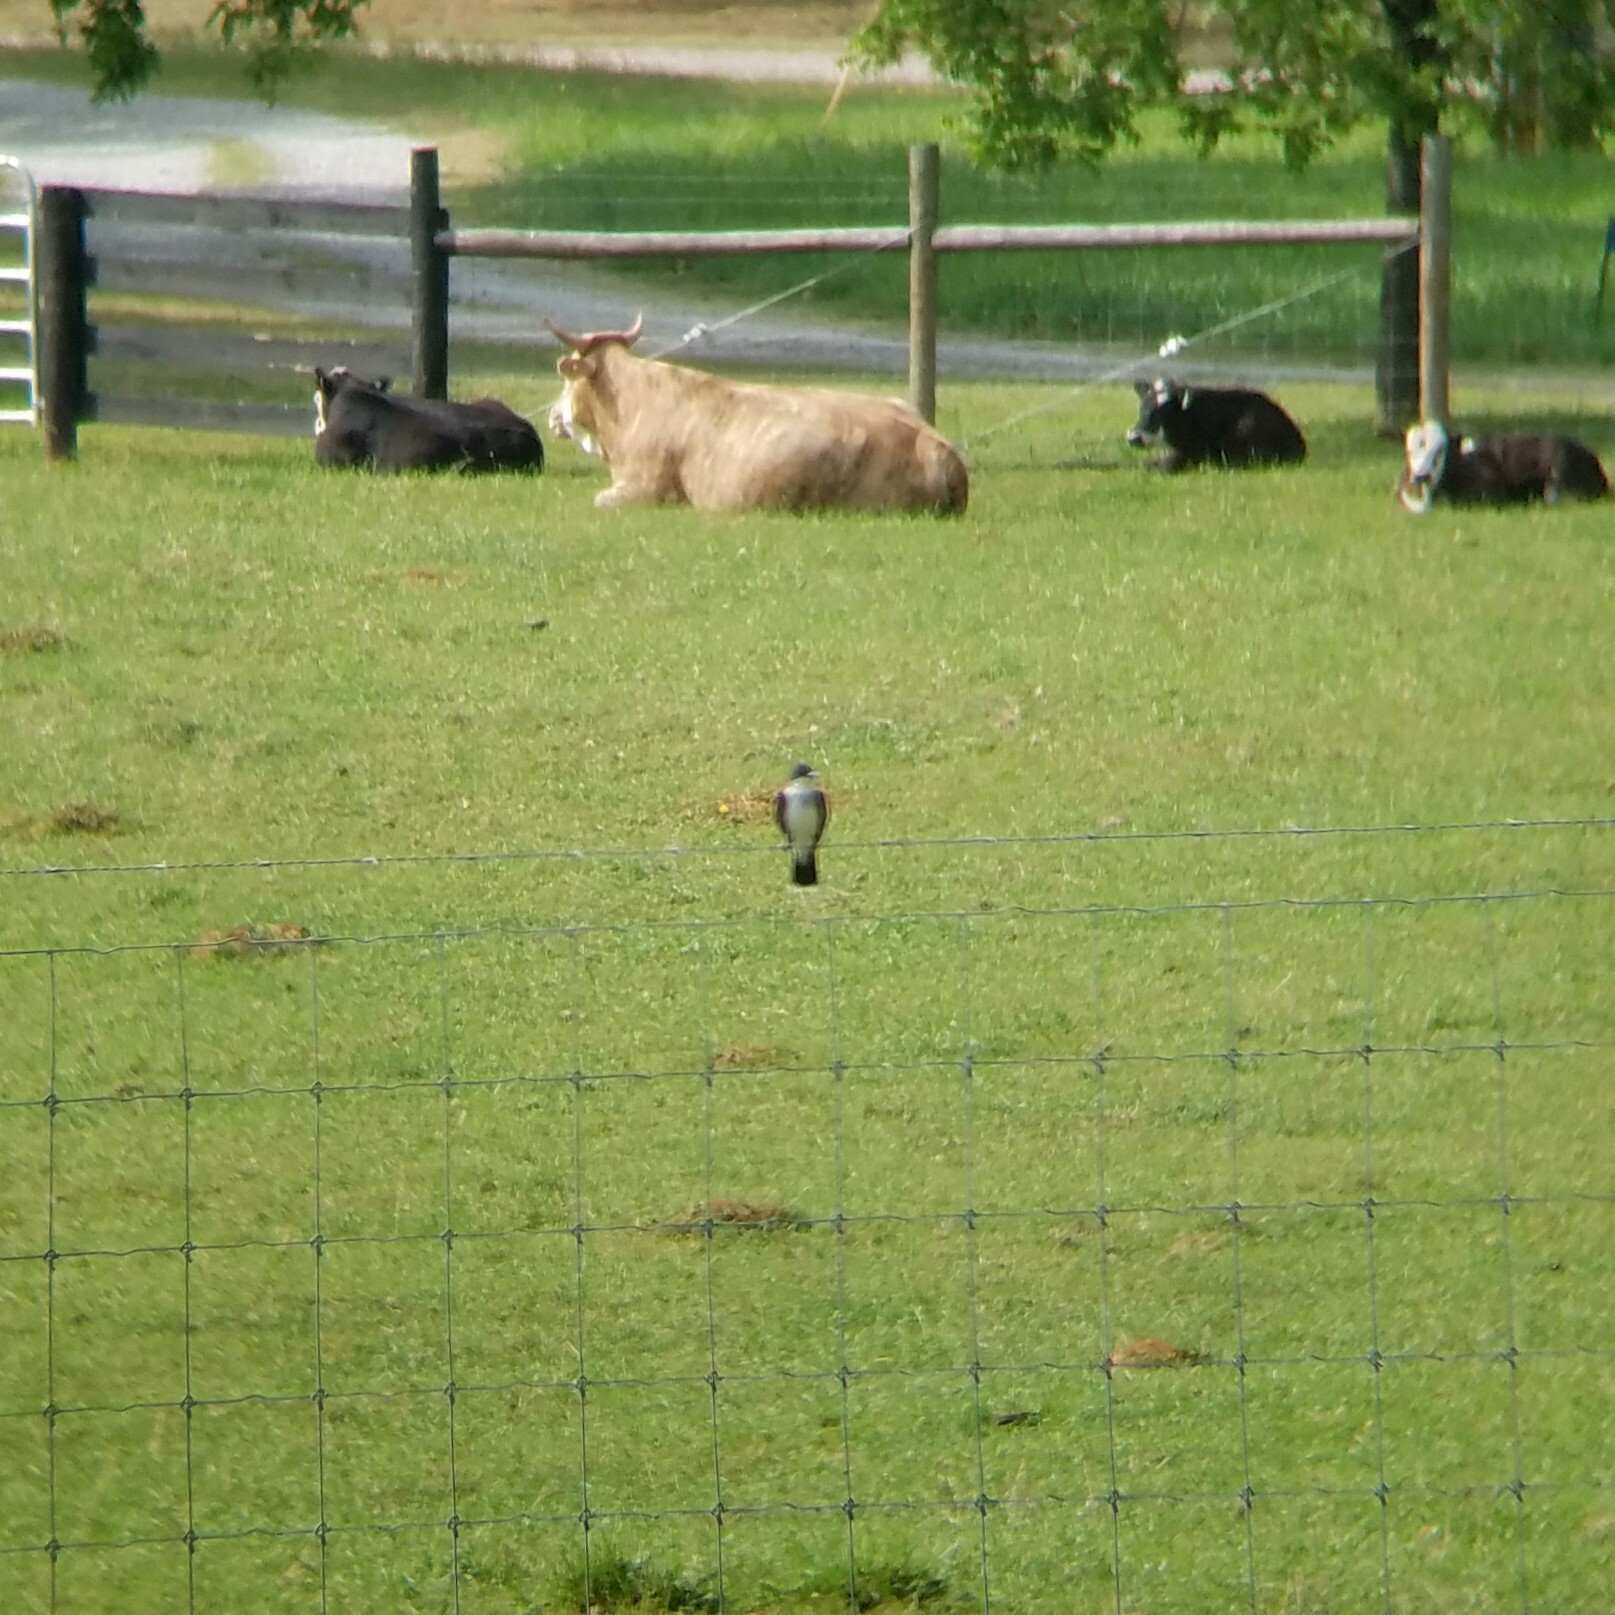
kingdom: Animalia
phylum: Chordata
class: Aves
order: Passeriformes
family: Tyrannidae
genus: Tyrannus
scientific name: Tyrannus tyrannus
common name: Eastern kingbird
